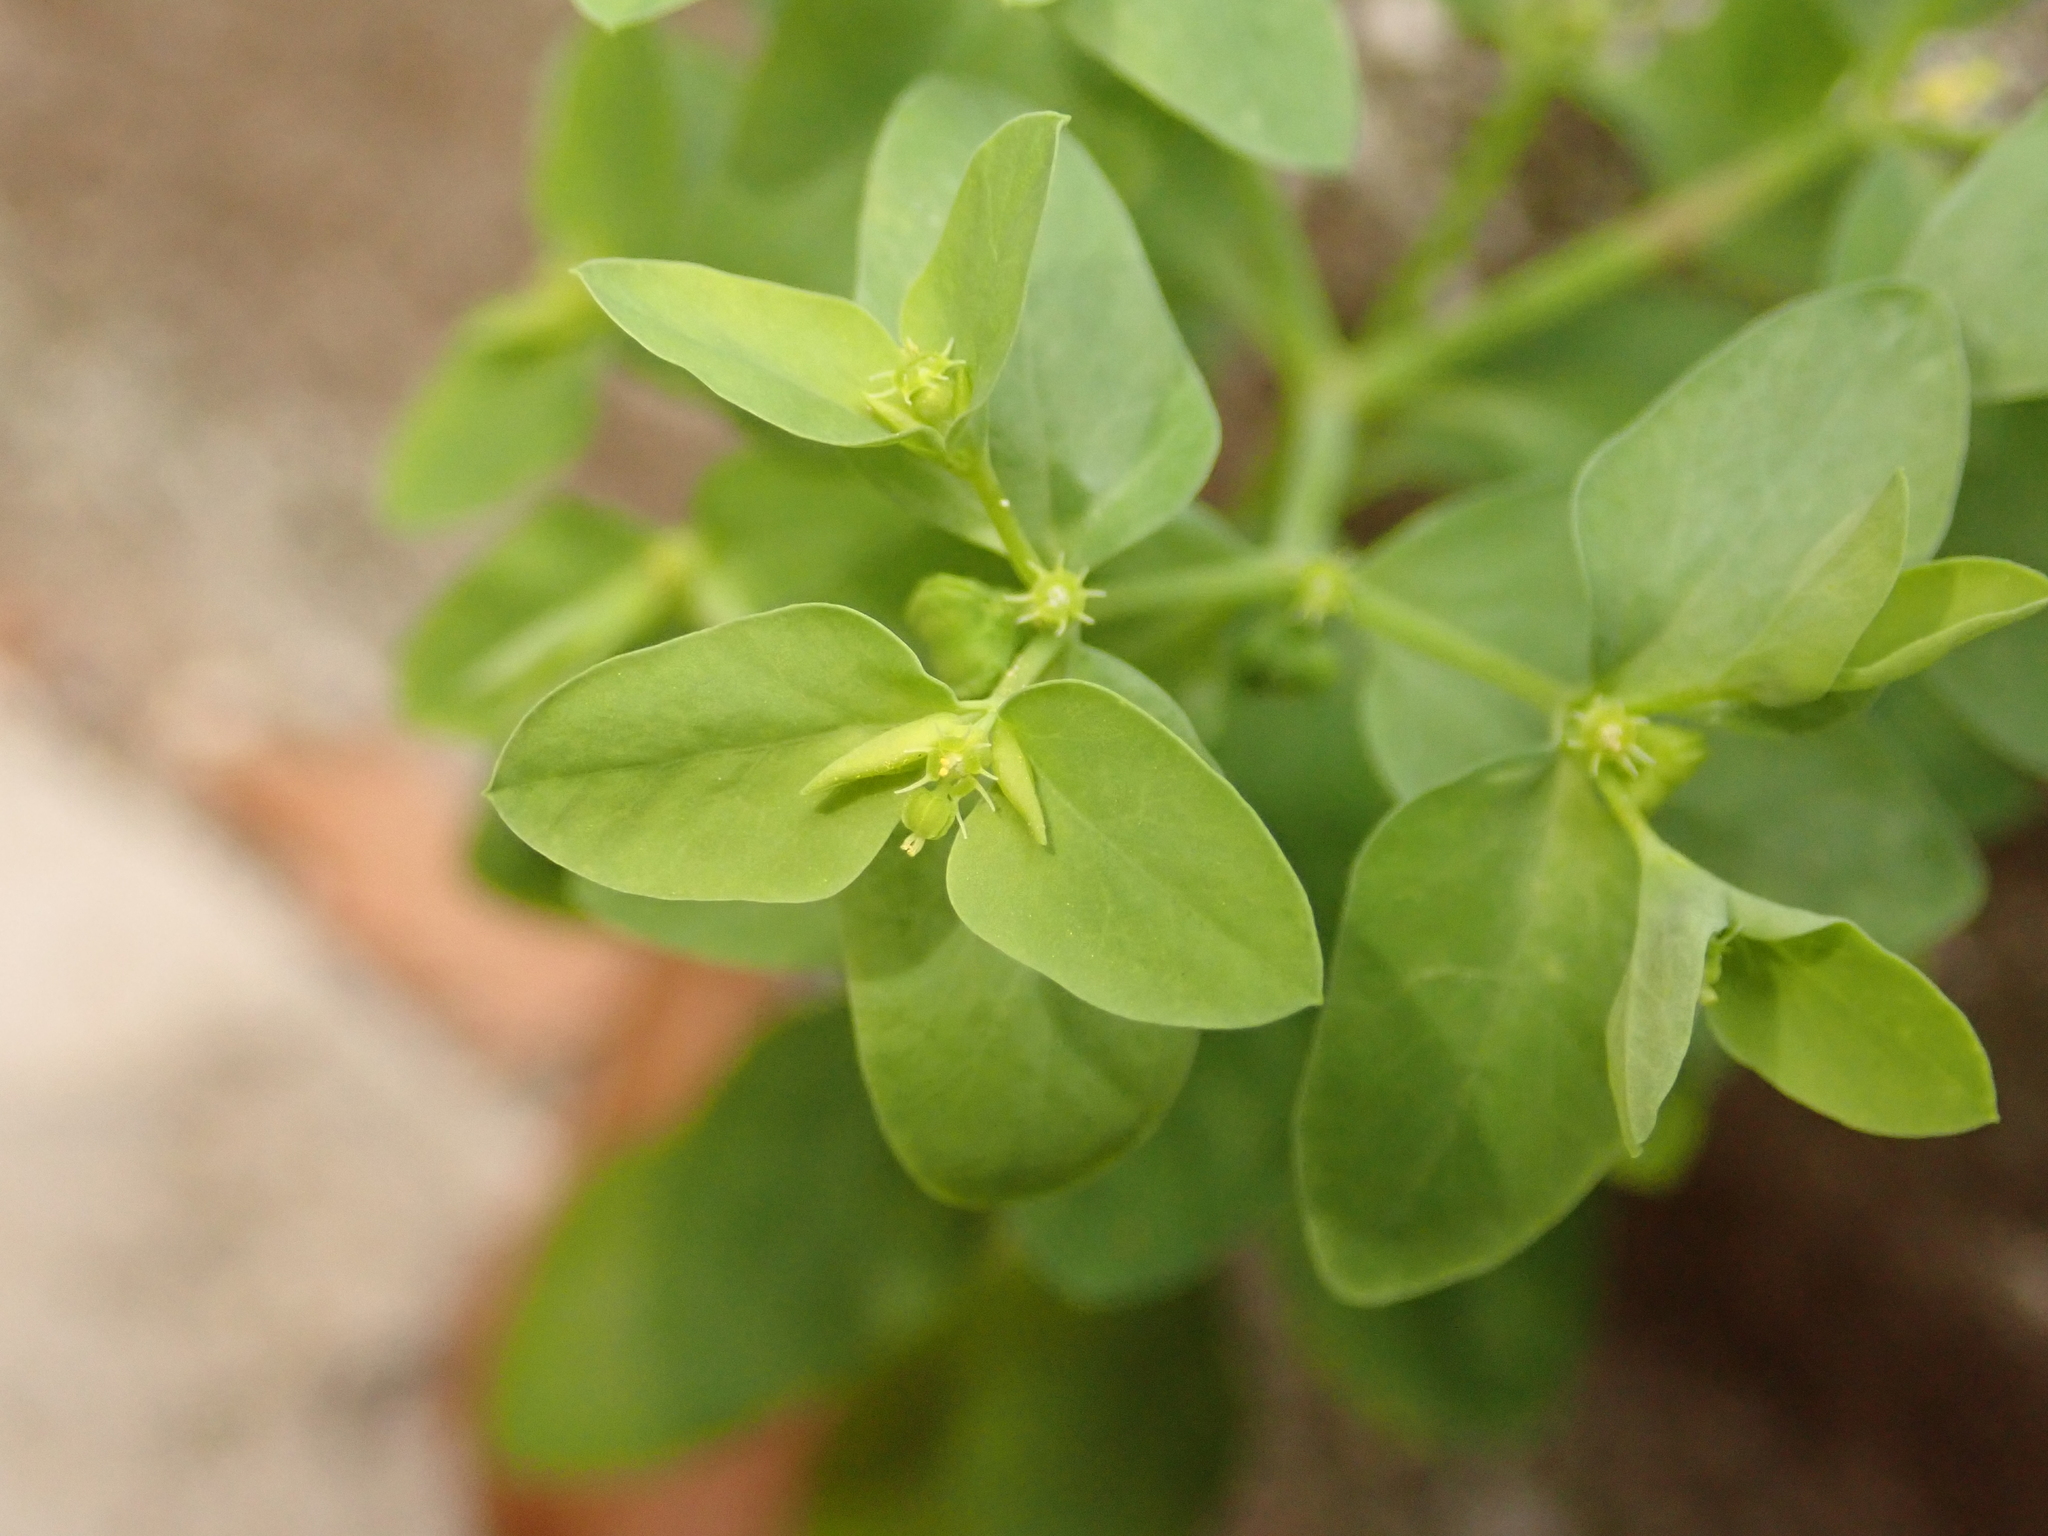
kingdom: Plantae
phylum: Tracheophyta
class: Magnoliopsida
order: Malpighiales
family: Euphorbiaceae
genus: Euphorbia
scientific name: Euphorbia peplus
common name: Petty spurge
